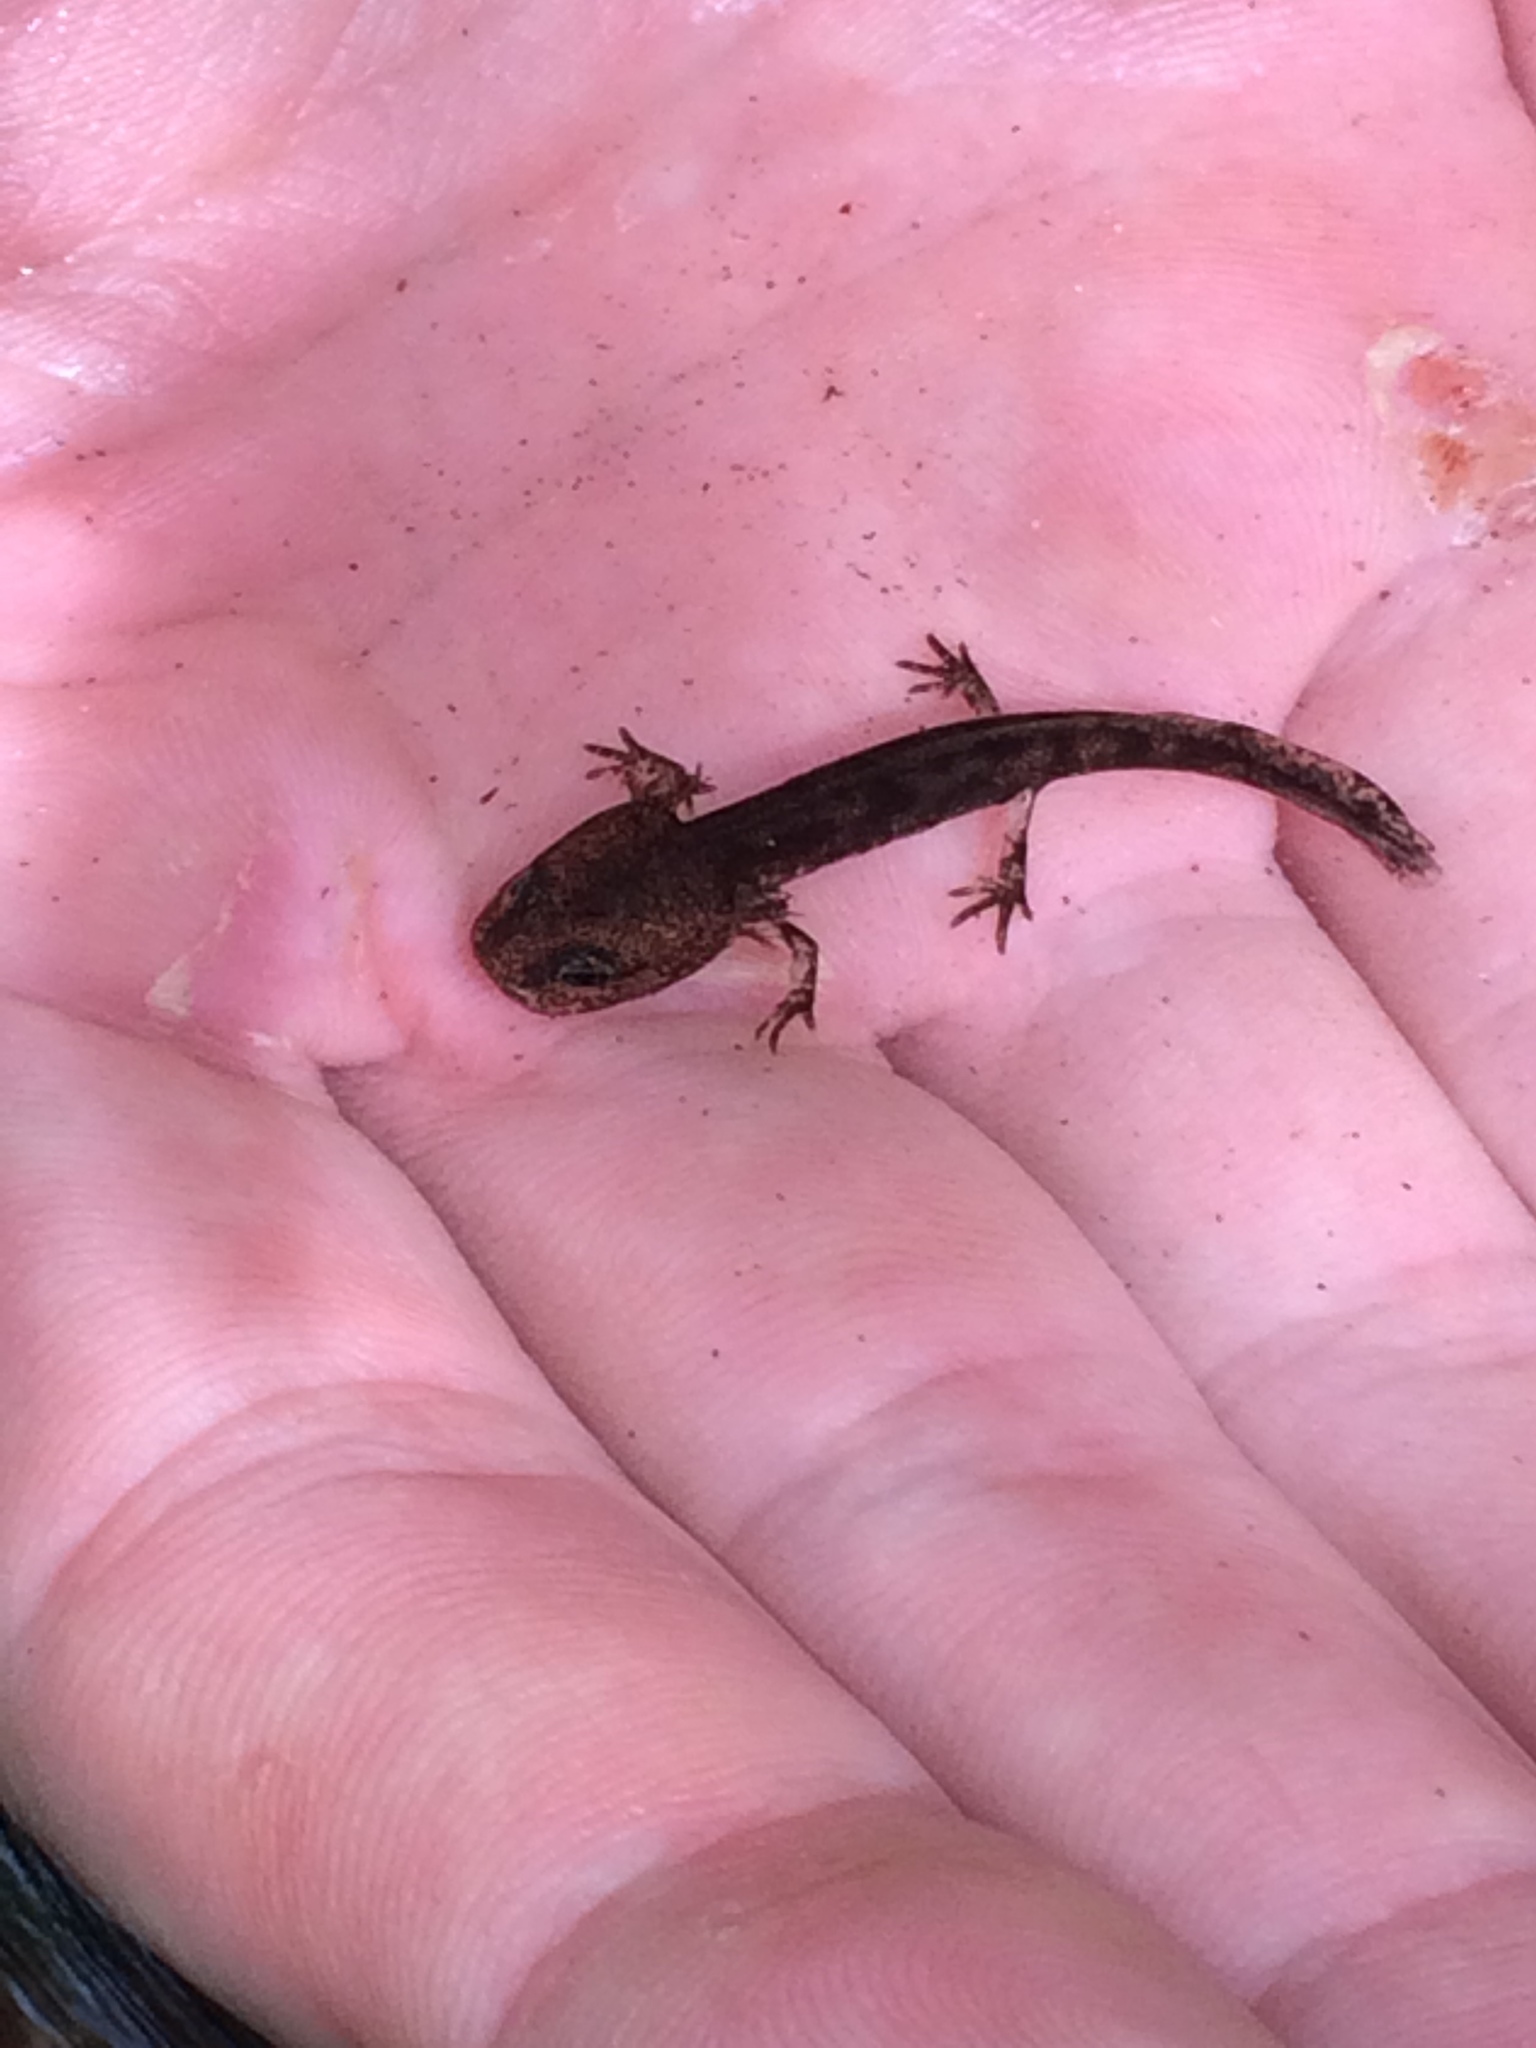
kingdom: Animalia
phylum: Chordata
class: Amphibia
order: Caudata
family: Salamandridae
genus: Salamandra
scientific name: Salamandra salamandra
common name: Fire salamander
